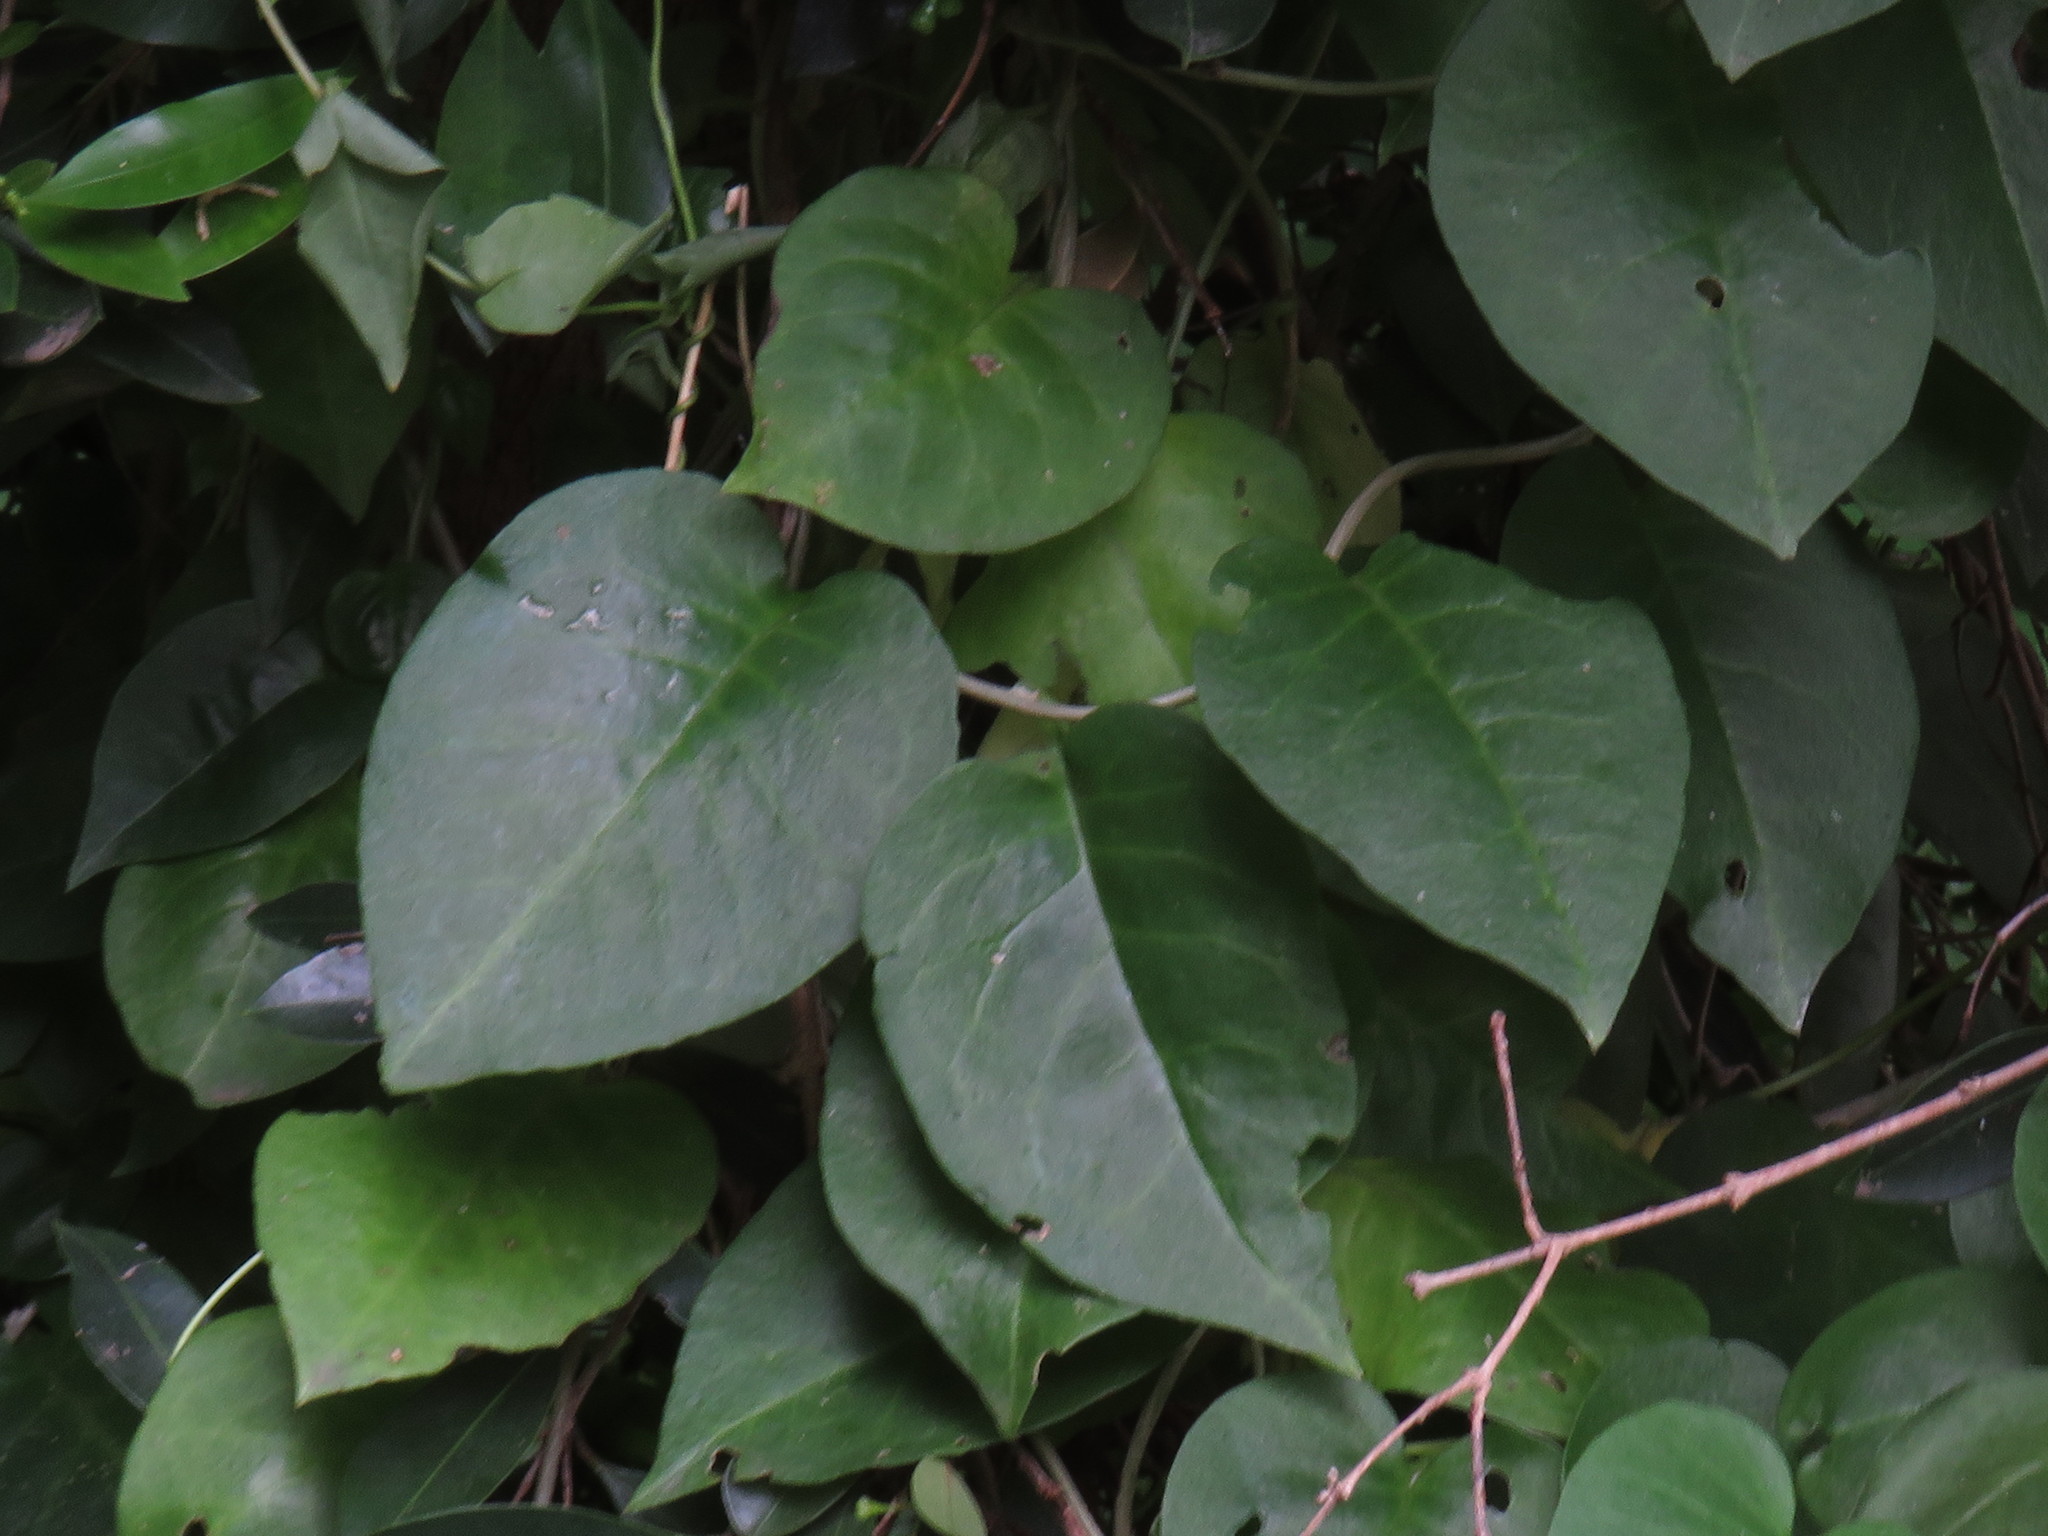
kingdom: Plantae
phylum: Tracheophyta
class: Magnoliopsida
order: Caryophyllales
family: Basellaceae
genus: Anredera
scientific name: Anredera cordifolia
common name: Heartleaf madeiravine
